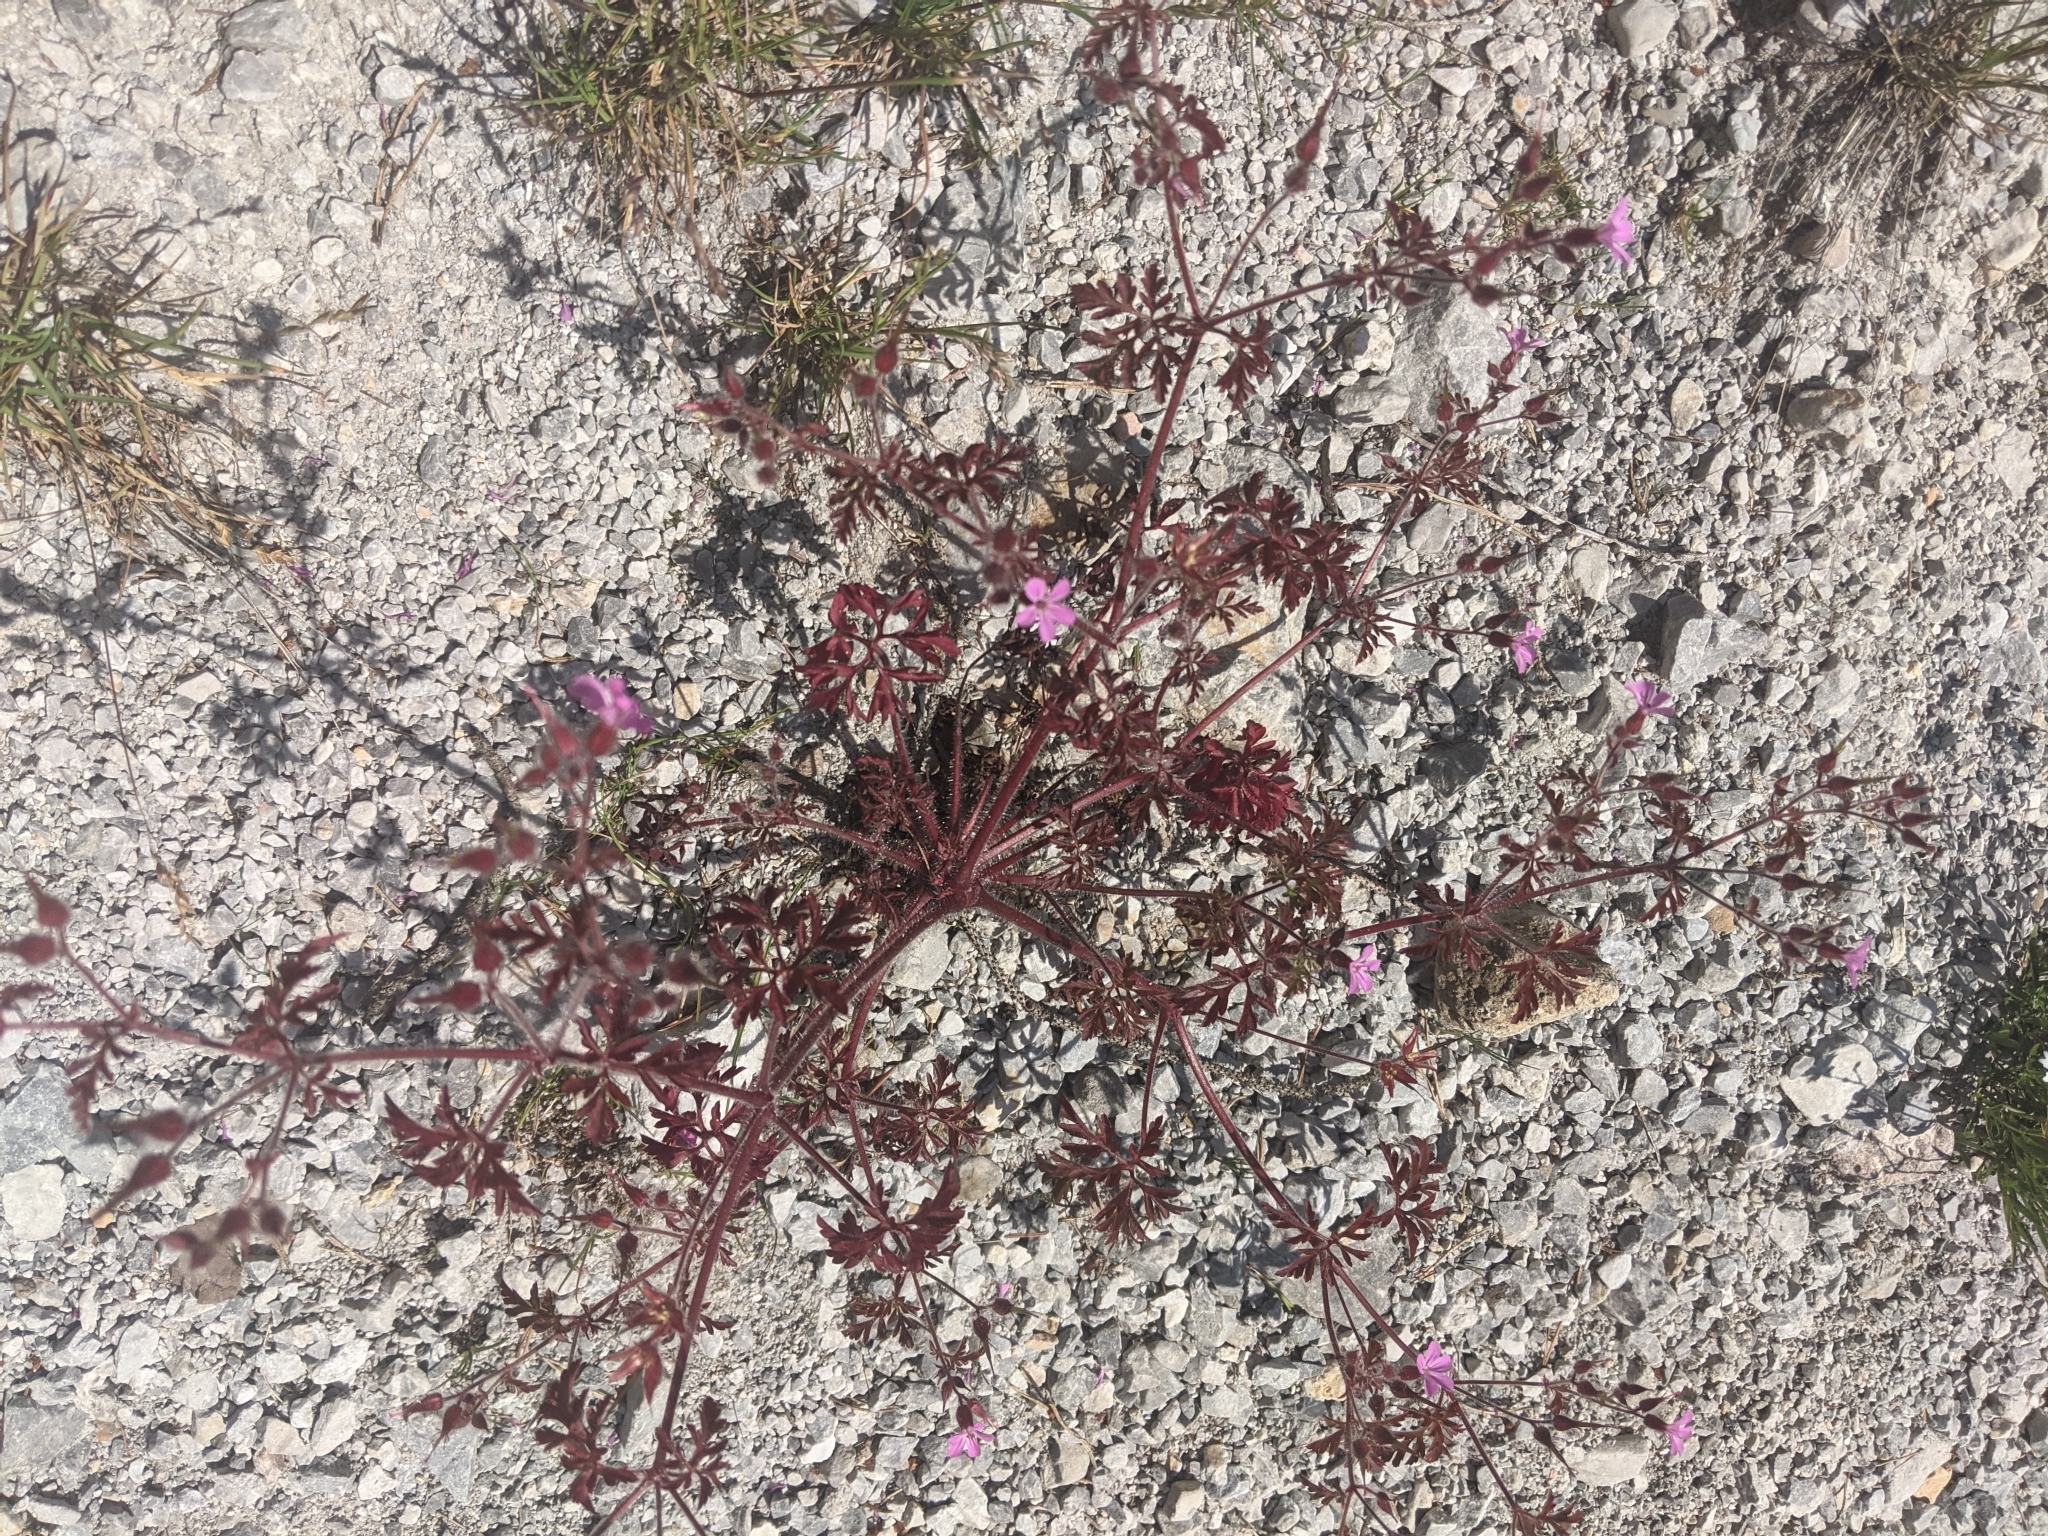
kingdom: Plantae
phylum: Tracheophyta
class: Magnoliopsida
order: Geraniales
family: Geraniaceae
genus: Geranium
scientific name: Geranium robertianum
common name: Herb-robert
